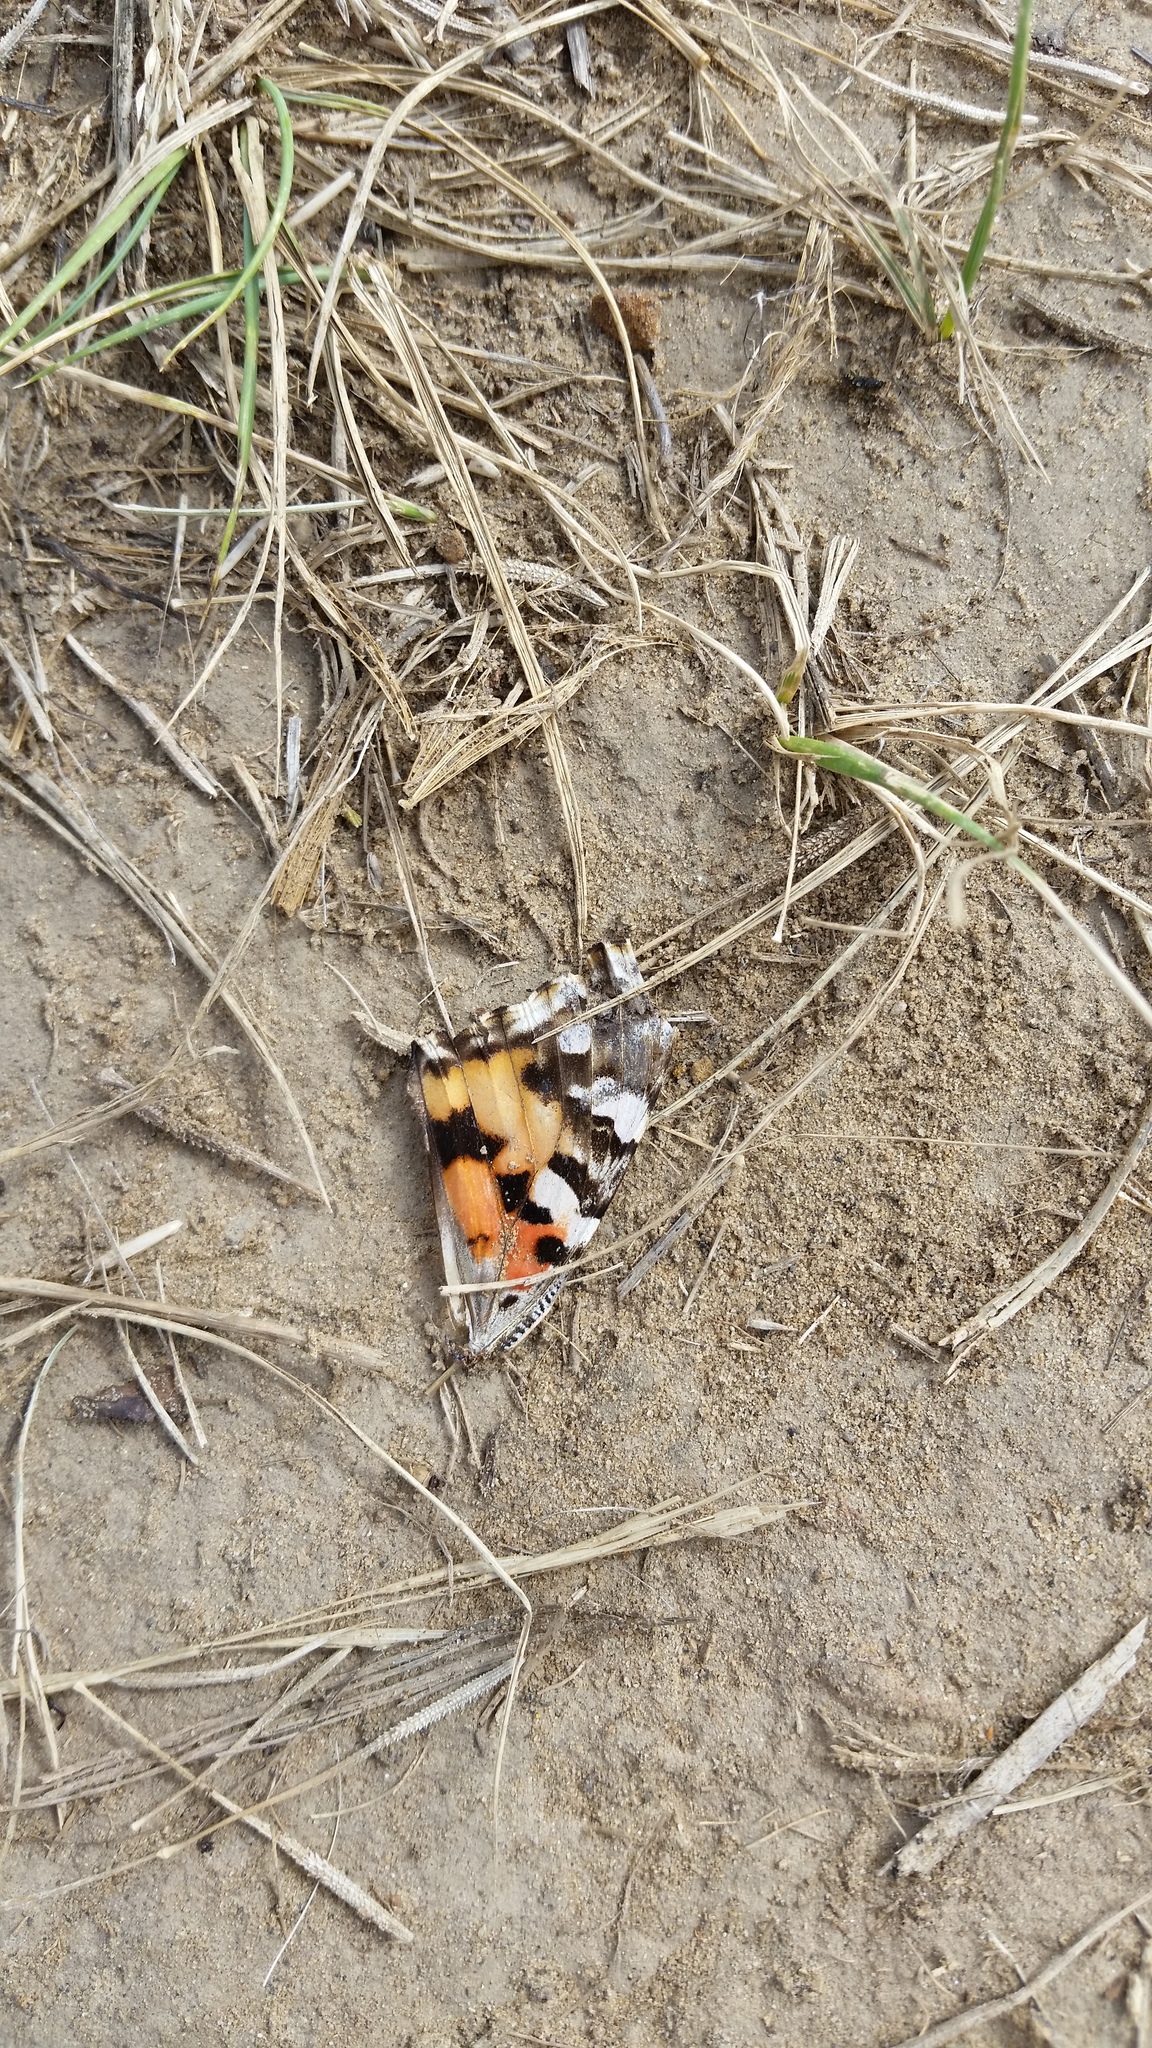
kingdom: Animalia
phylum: Arthropoda
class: Insecta
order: Lepidoptera
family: Nymphalidae
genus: Vanessa
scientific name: Vanessa cardui
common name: Painted lady
